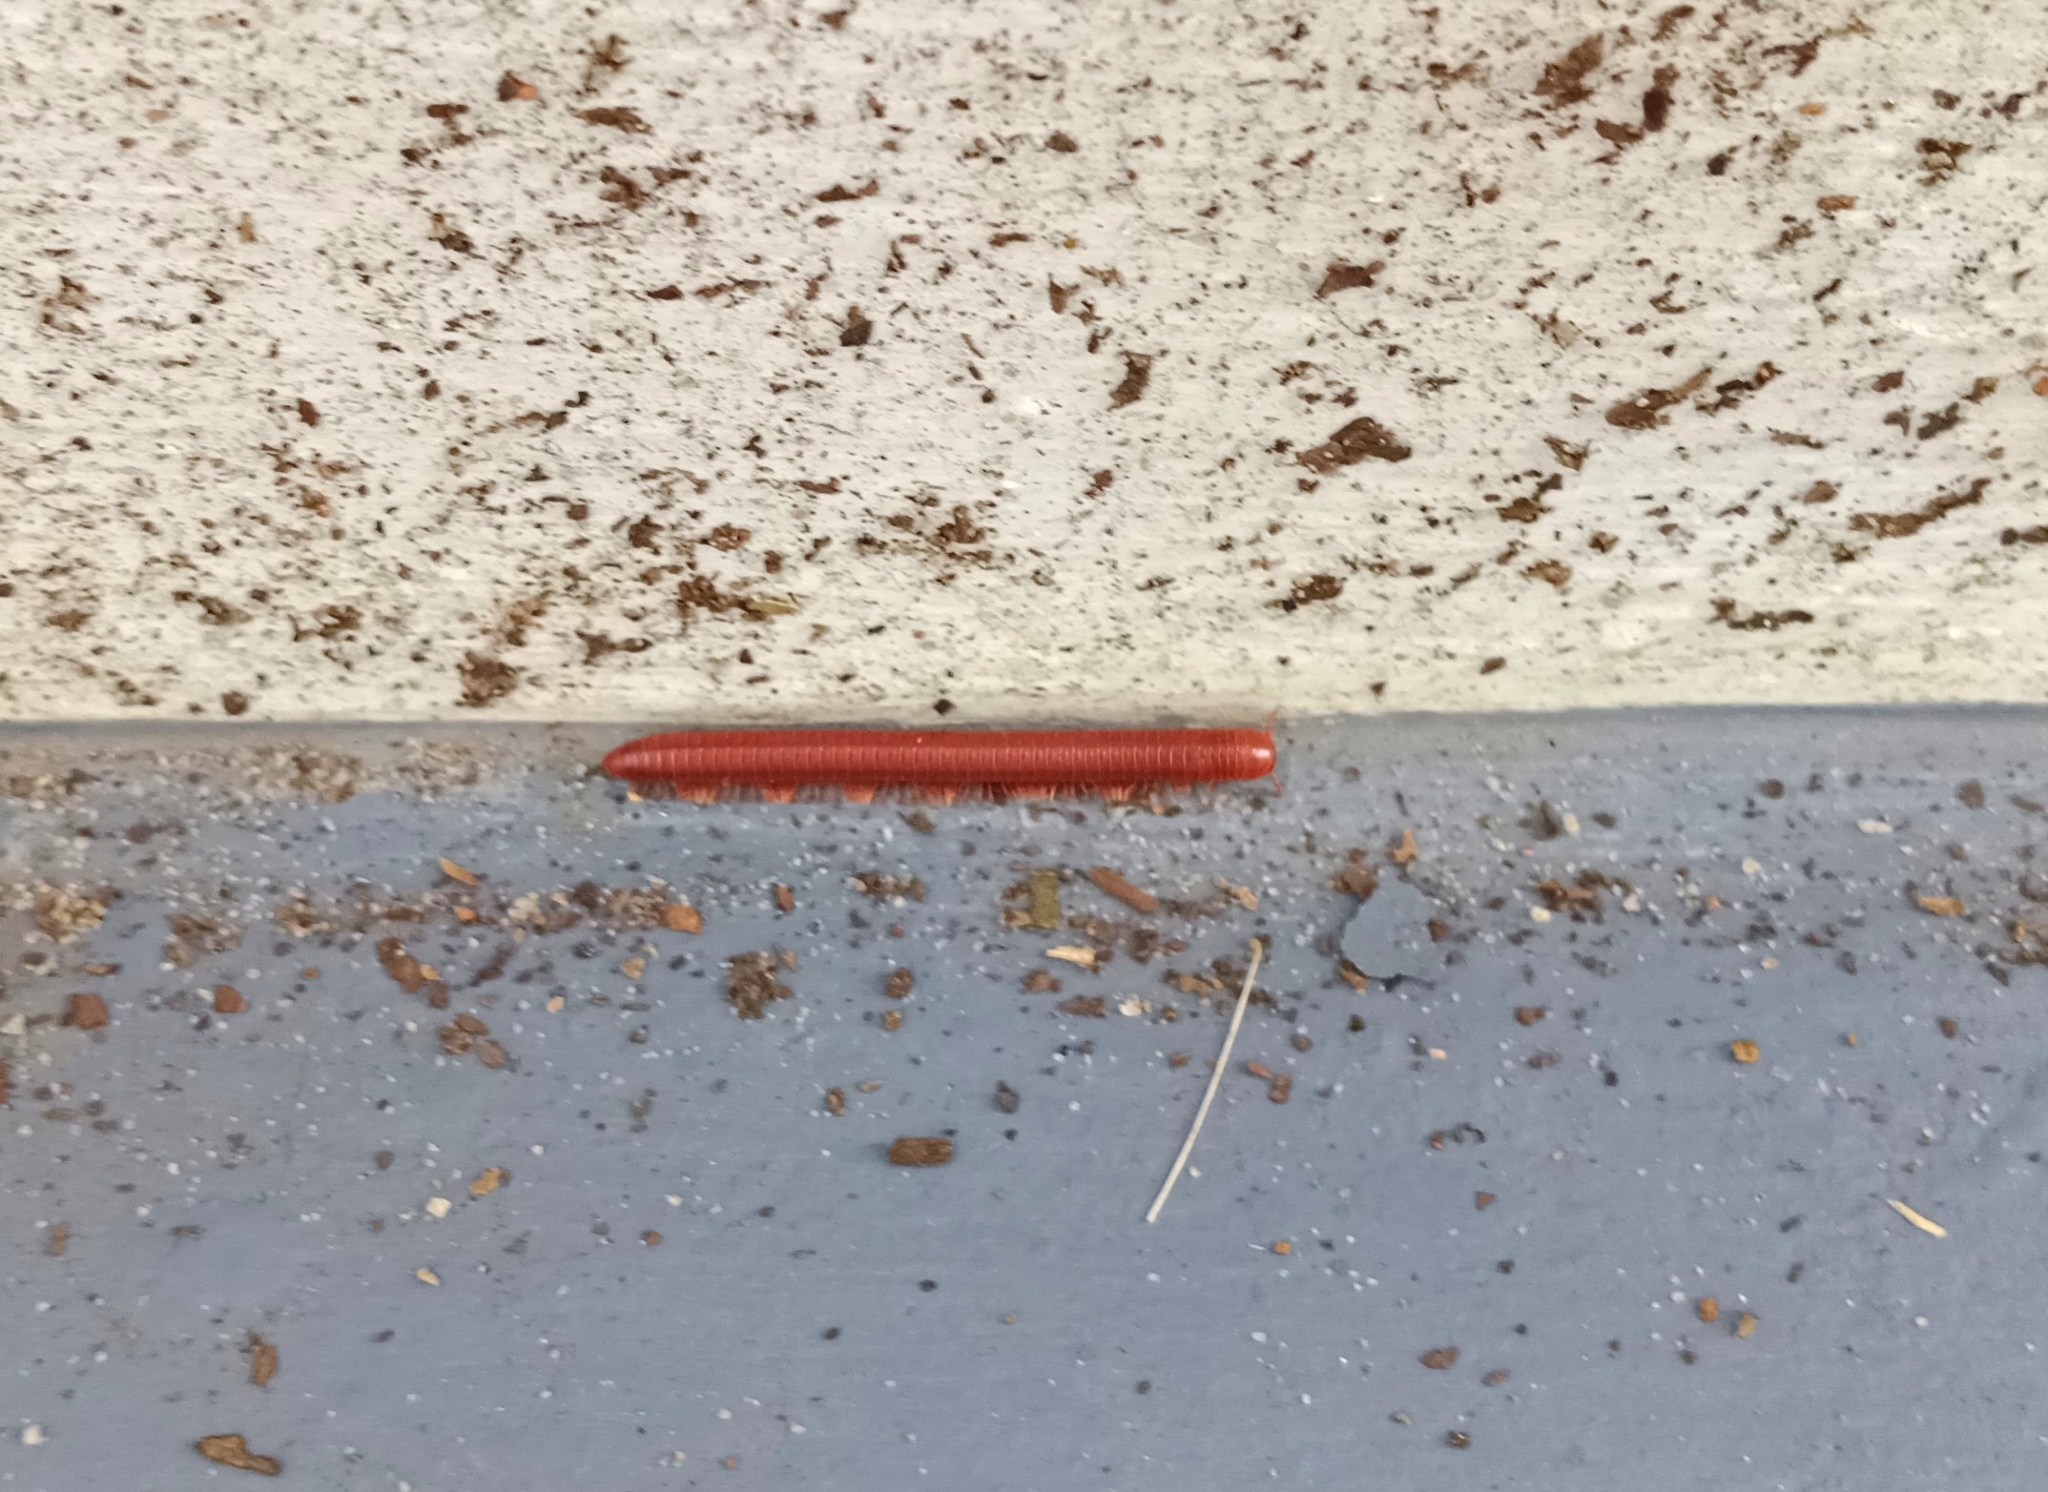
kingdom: Animalia
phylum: Arthropoda
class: Diplopoda
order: Spirobolida
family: Pachybolidae
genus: Trigoniulus
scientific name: Trigoniulus corallinus
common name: Millipede
